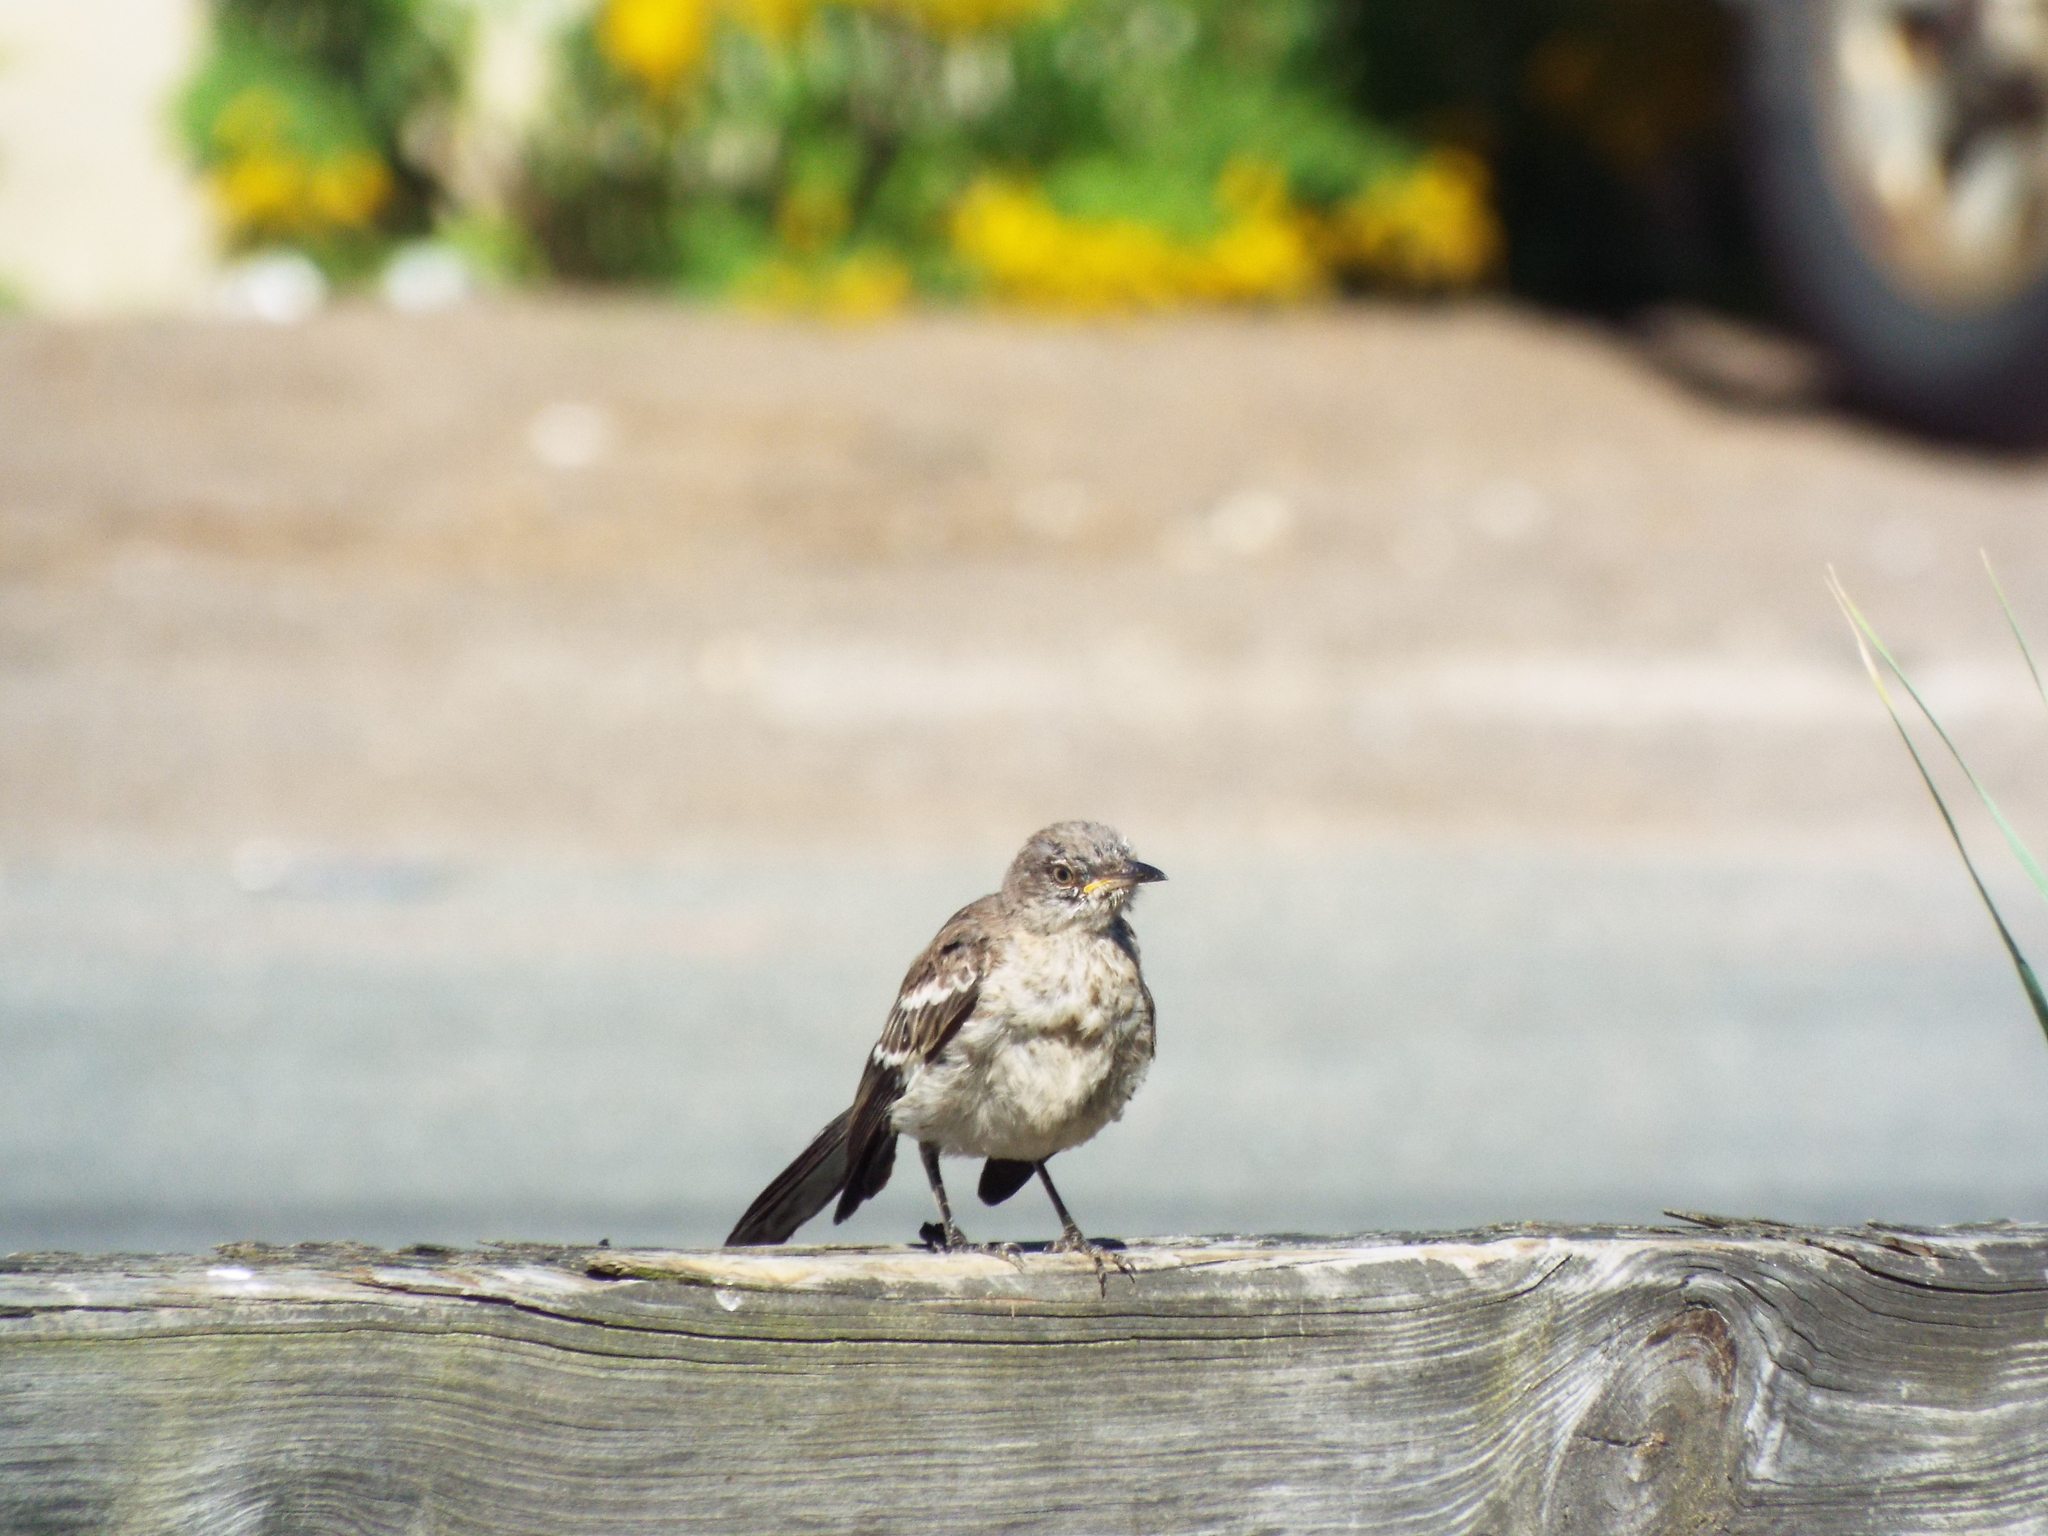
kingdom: Animalia
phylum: Chordata
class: Aves
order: Passeriformes
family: Mimidae
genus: Mimus
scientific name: Mimus polyglottos
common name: Northern mockingbird
